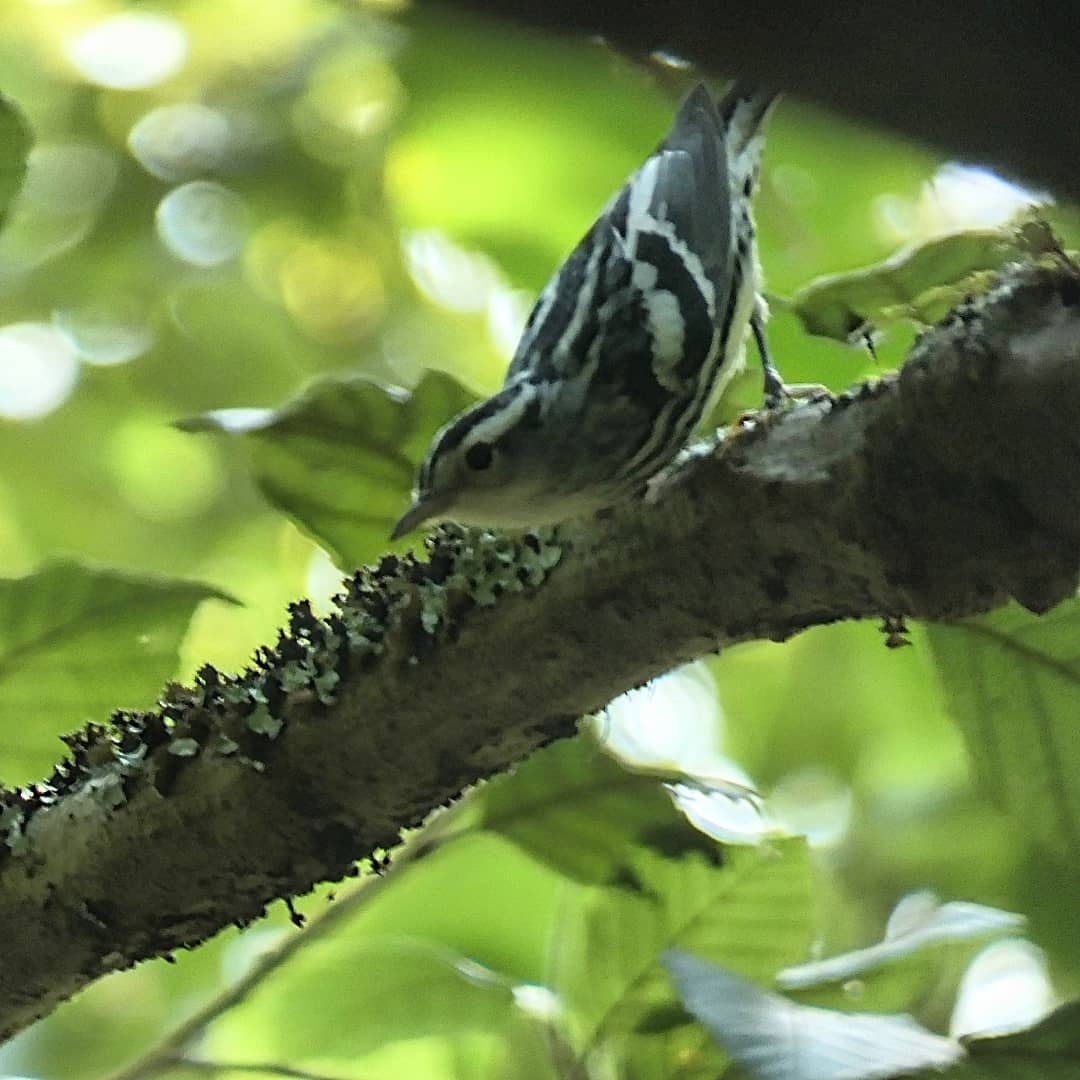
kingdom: Animalia
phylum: Chordata
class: Aves
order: Passeriformes
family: Parulidae
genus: Mniotilta
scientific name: Mniotilta varia
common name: Black-and-white warbler
